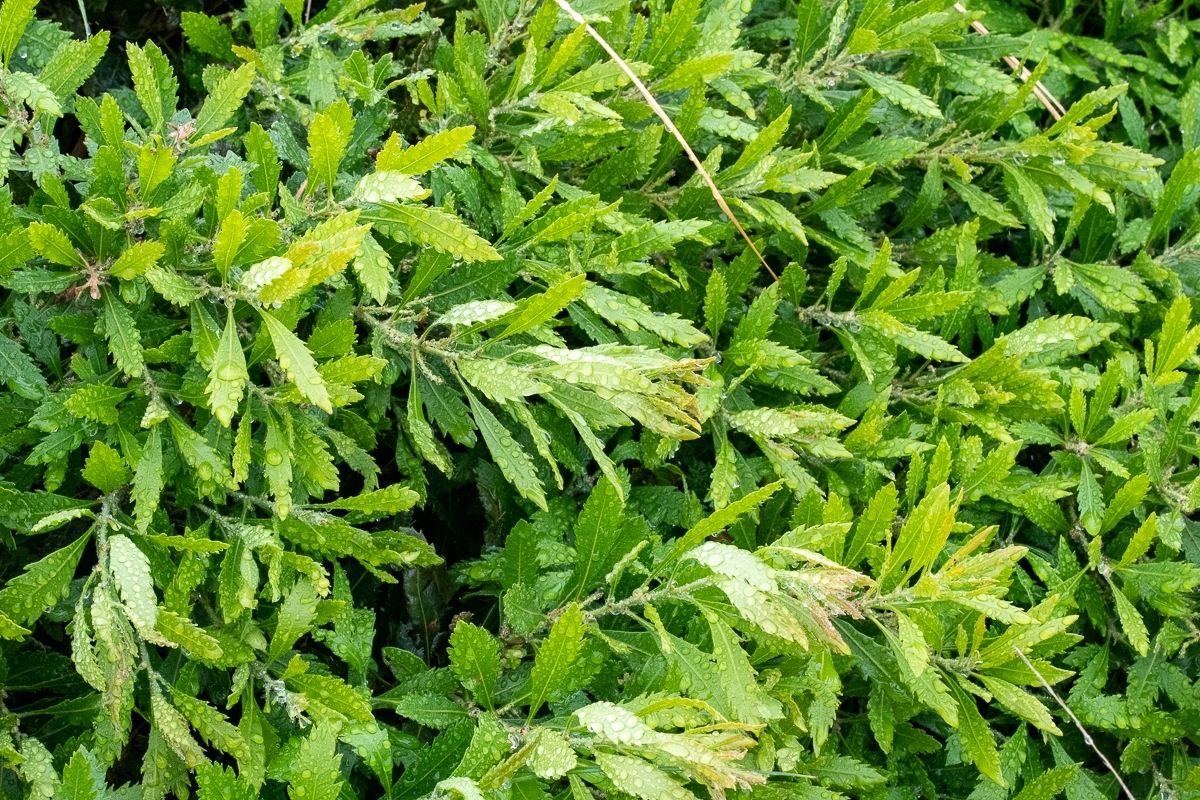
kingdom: Plantae
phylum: Tracheophyta
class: Magnoliopsida
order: Fagales
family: Myricaceae
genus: Morella
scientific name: Morella serrata
